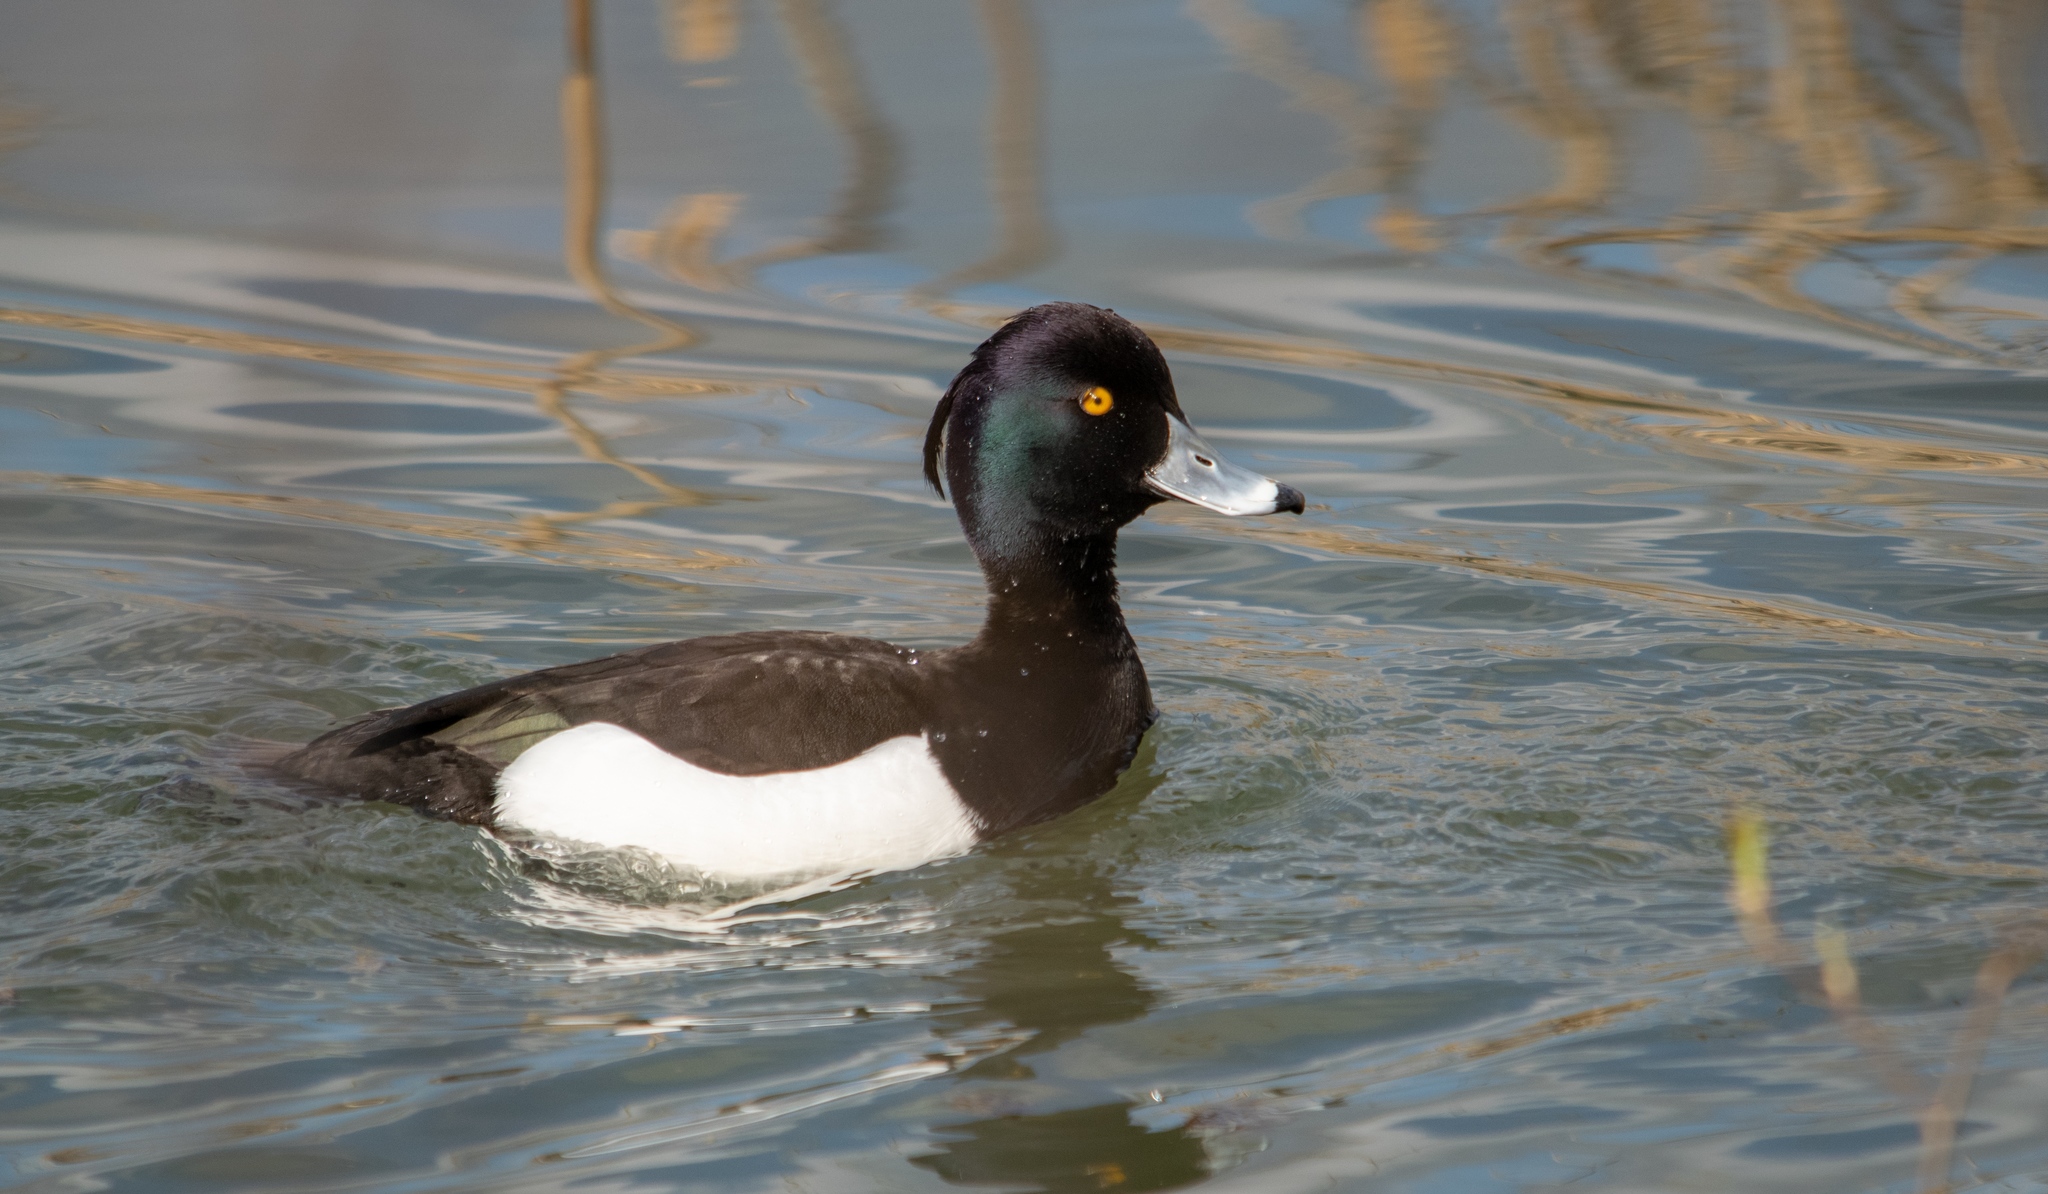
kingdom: Animalia
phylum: Chordata
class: Aves
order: Anseriformes
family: Anatidae
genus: Aythya
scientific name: Aythya fuligula
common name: Tufted duck
